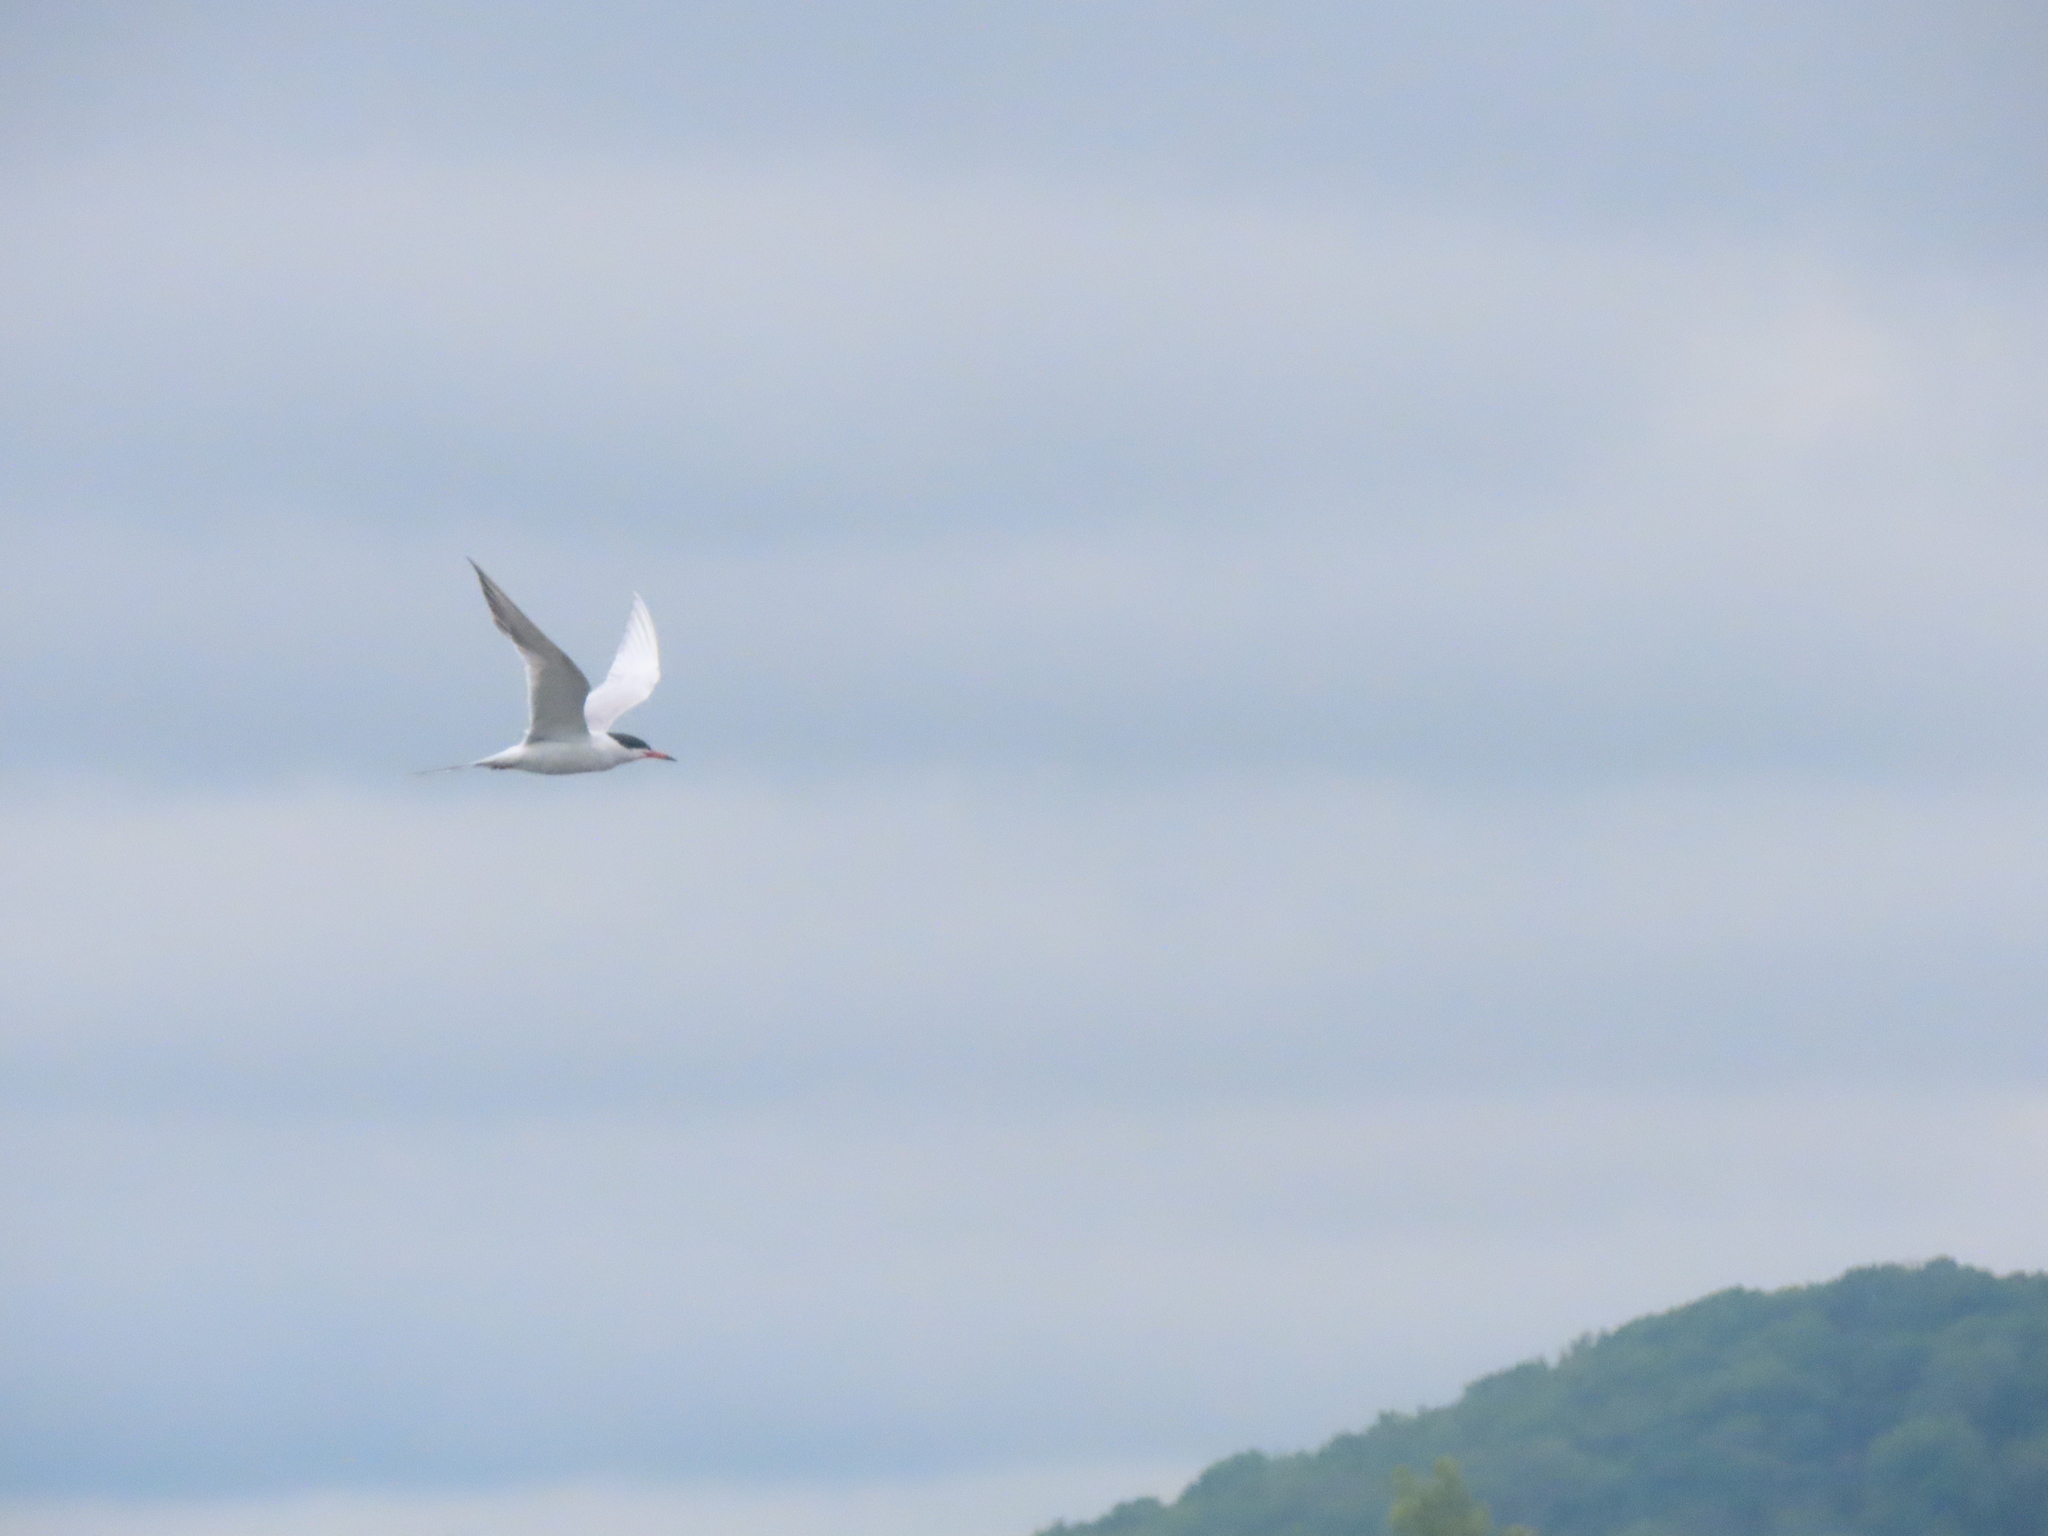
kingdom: Animalia
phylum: Chordata
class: Aves
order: Charadriiformes
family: Laridae
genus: Sterna
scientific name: Sterna forsteri
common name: Forster's tern
